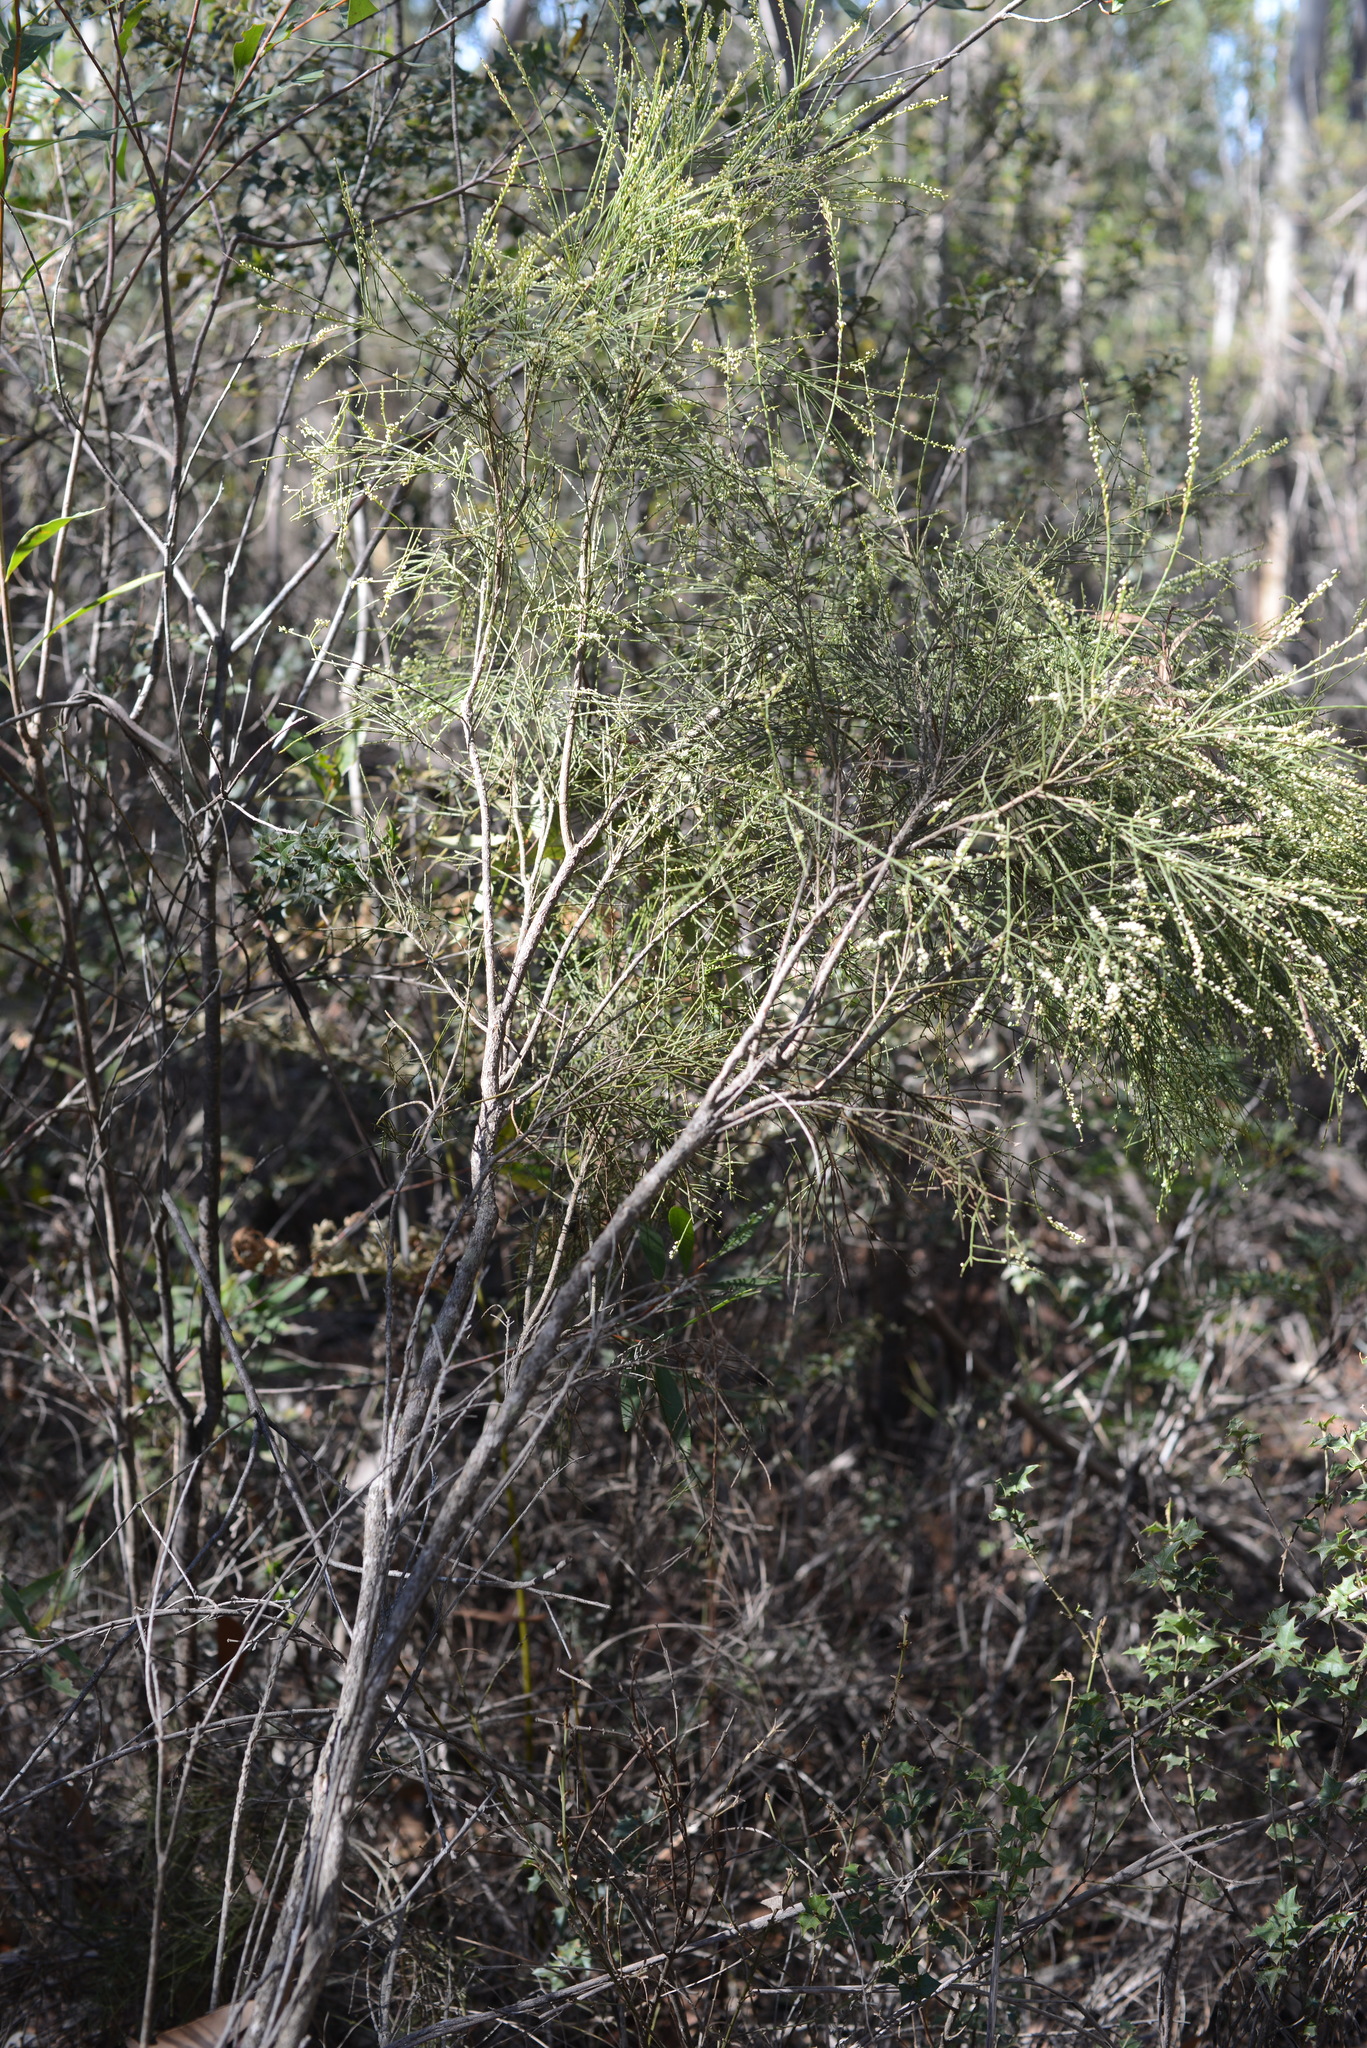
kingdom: Plantae
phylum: Tracheophyta
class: Magnoliopsida
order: Santalales
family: Amphorogynaceae
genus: Choretrum
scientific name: Choretrum candollei
